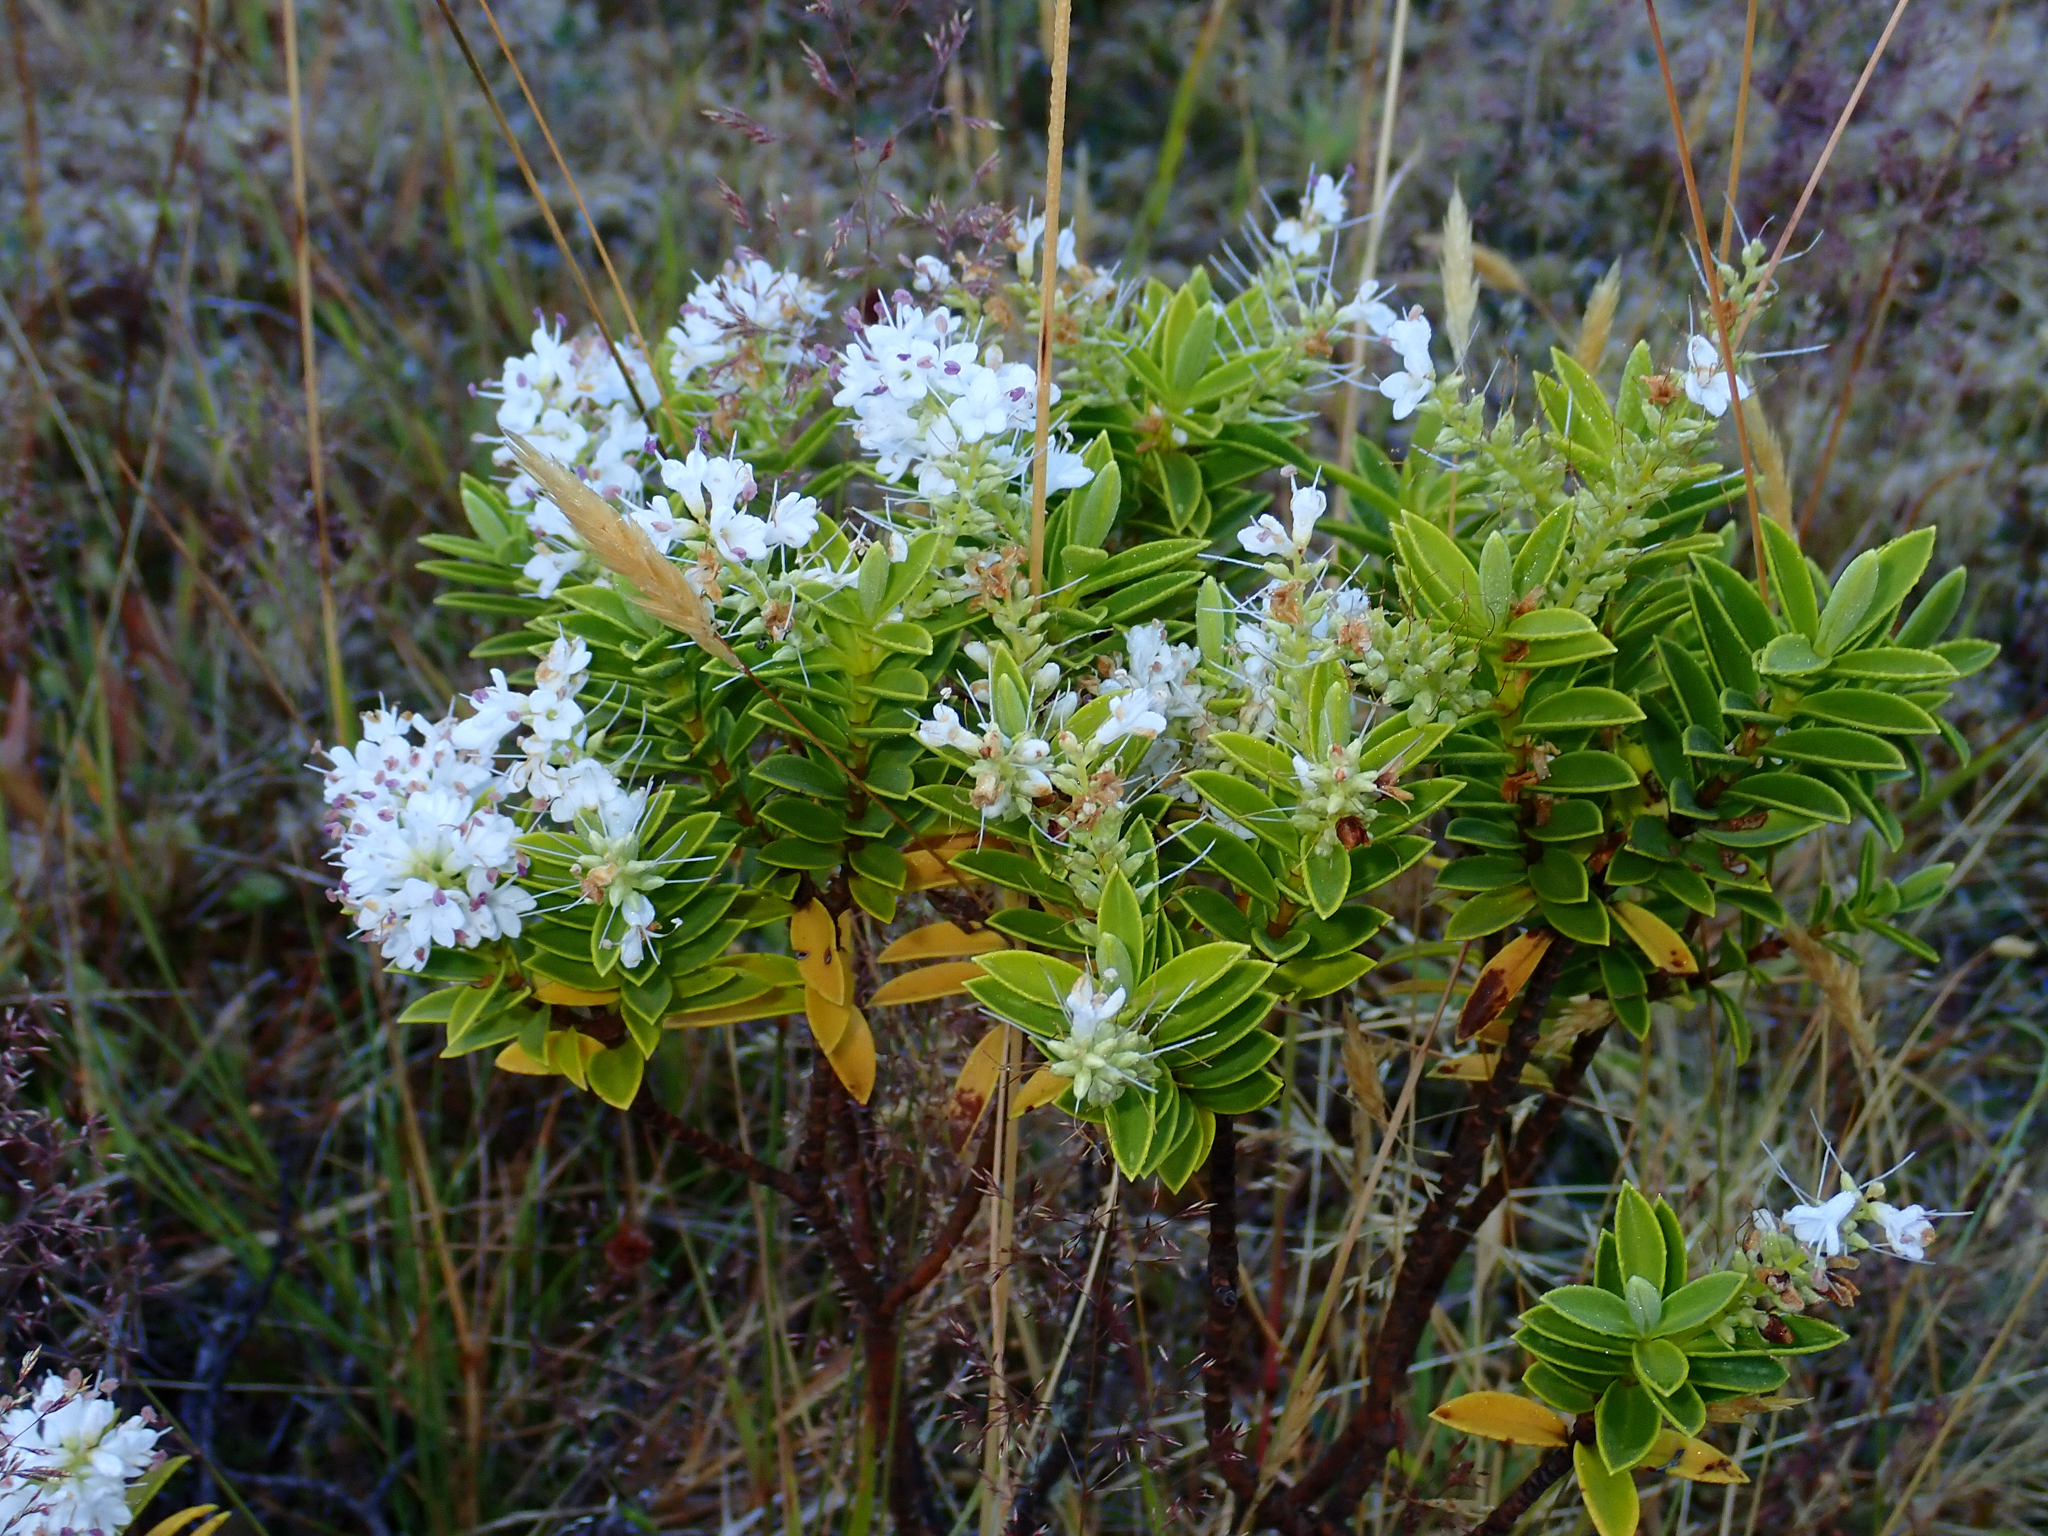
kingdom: Plantae
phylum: Tracheophyta
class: Magnoliopsida
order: Lamiales
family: Plantaginaceae
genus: Veronica
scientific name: Veronica brachysiphon
